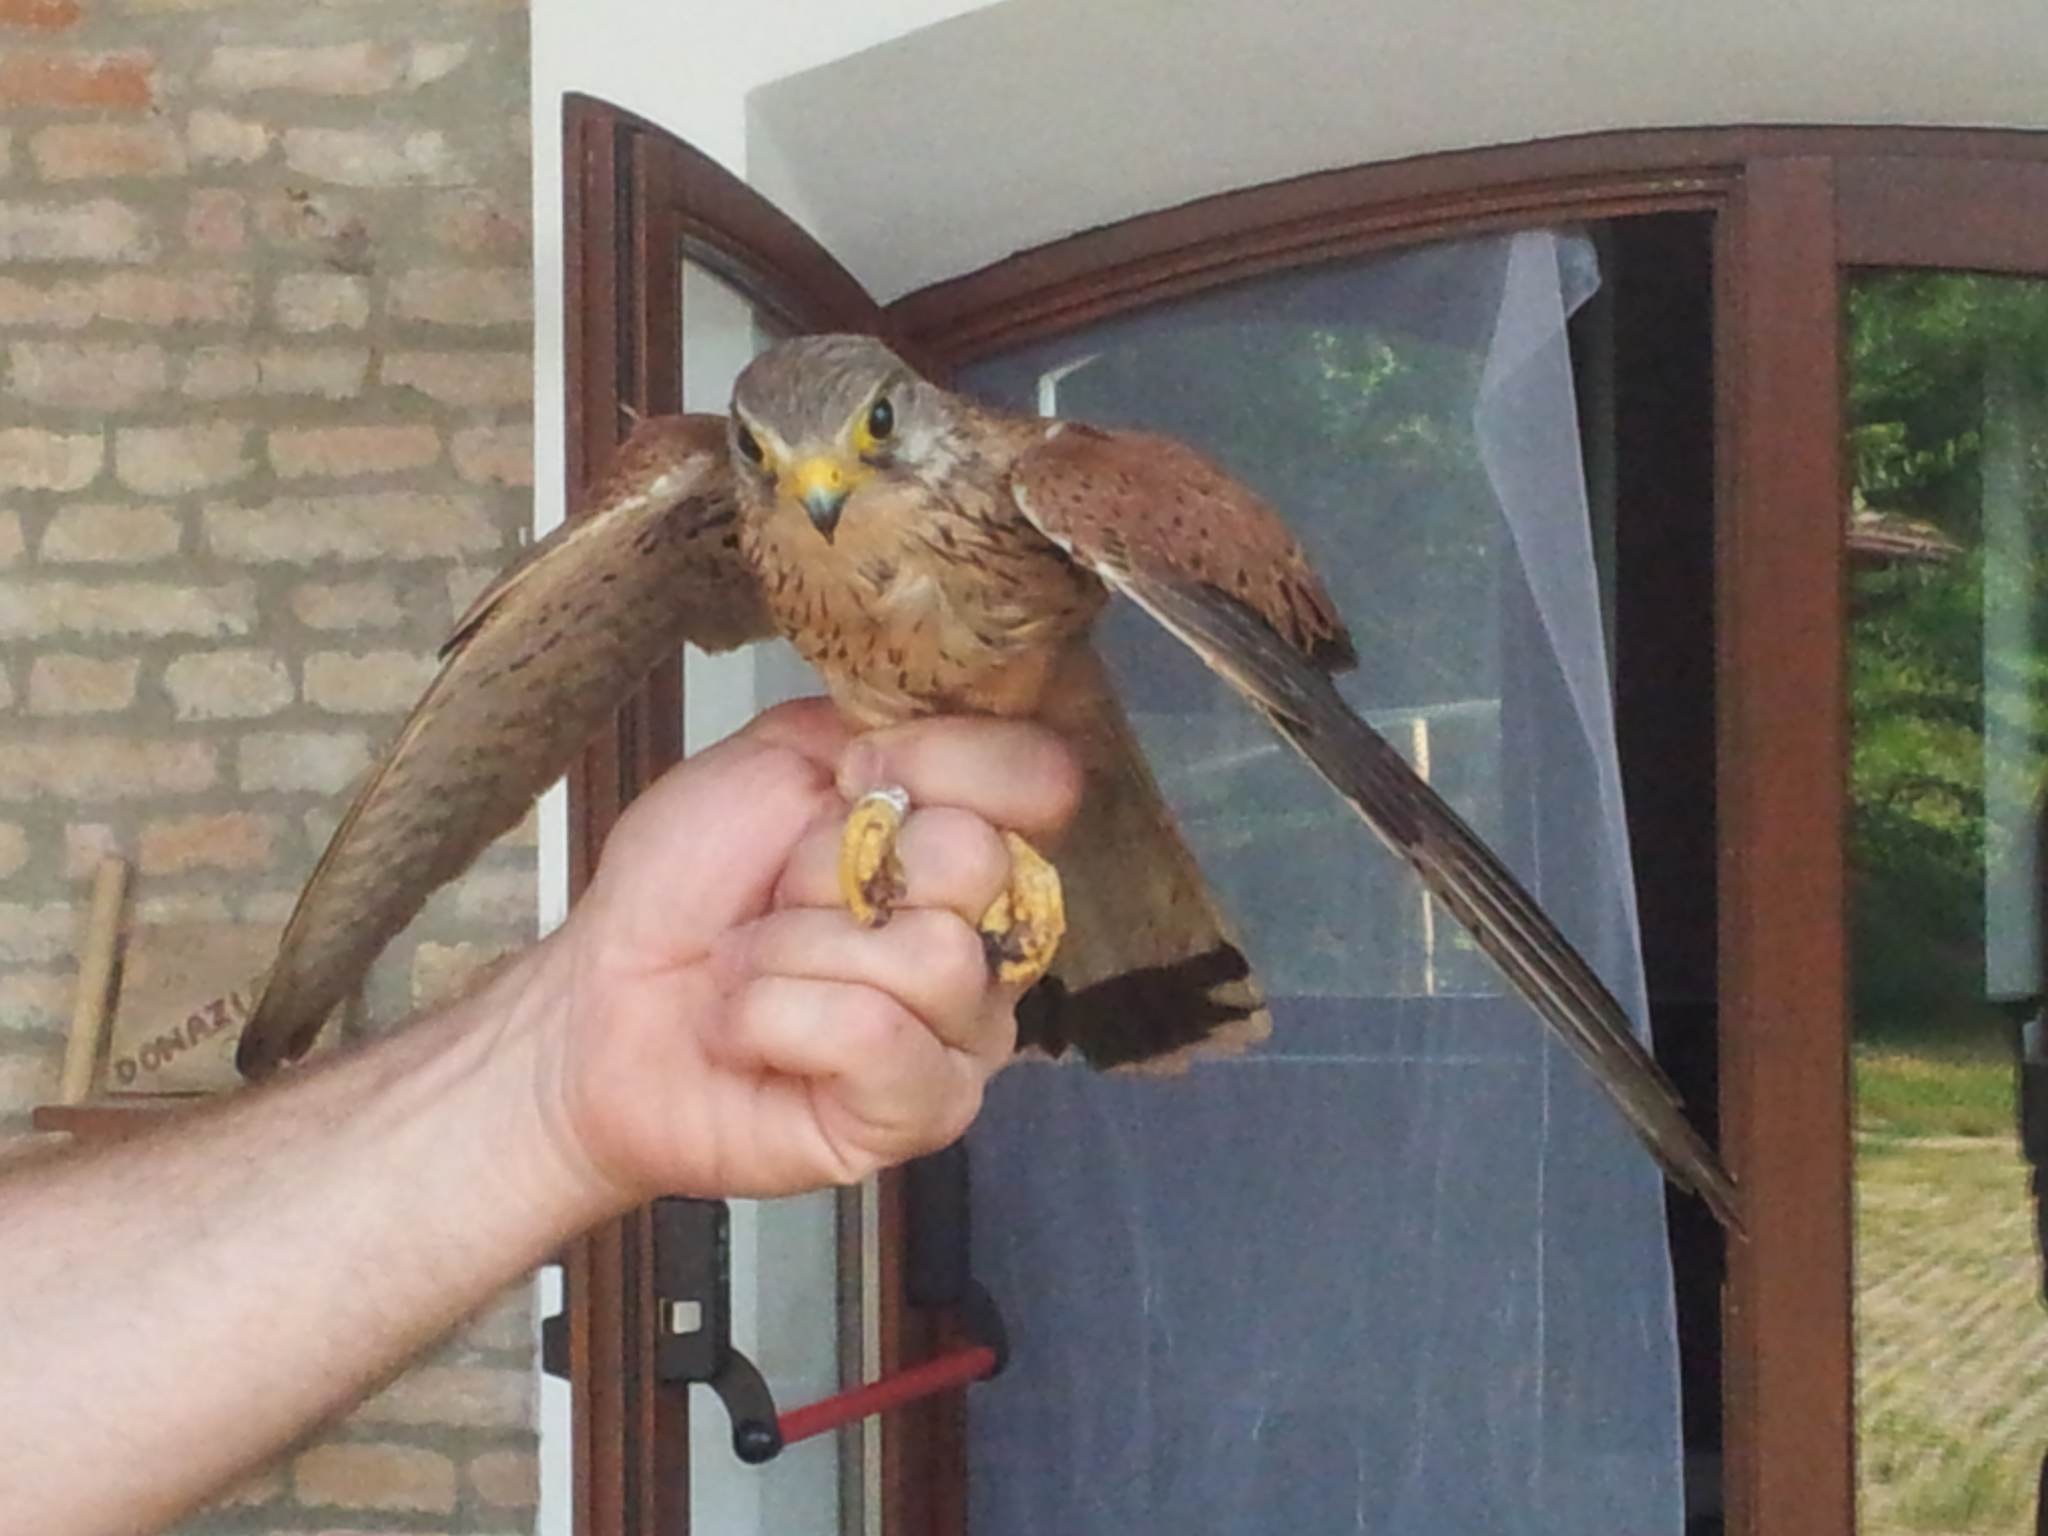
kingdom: Animalia
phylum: Chordata
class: Aves
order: Falconiformes
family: Falconidae
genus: Falco
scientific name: Falco tinnunculus
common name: Common kestrel
